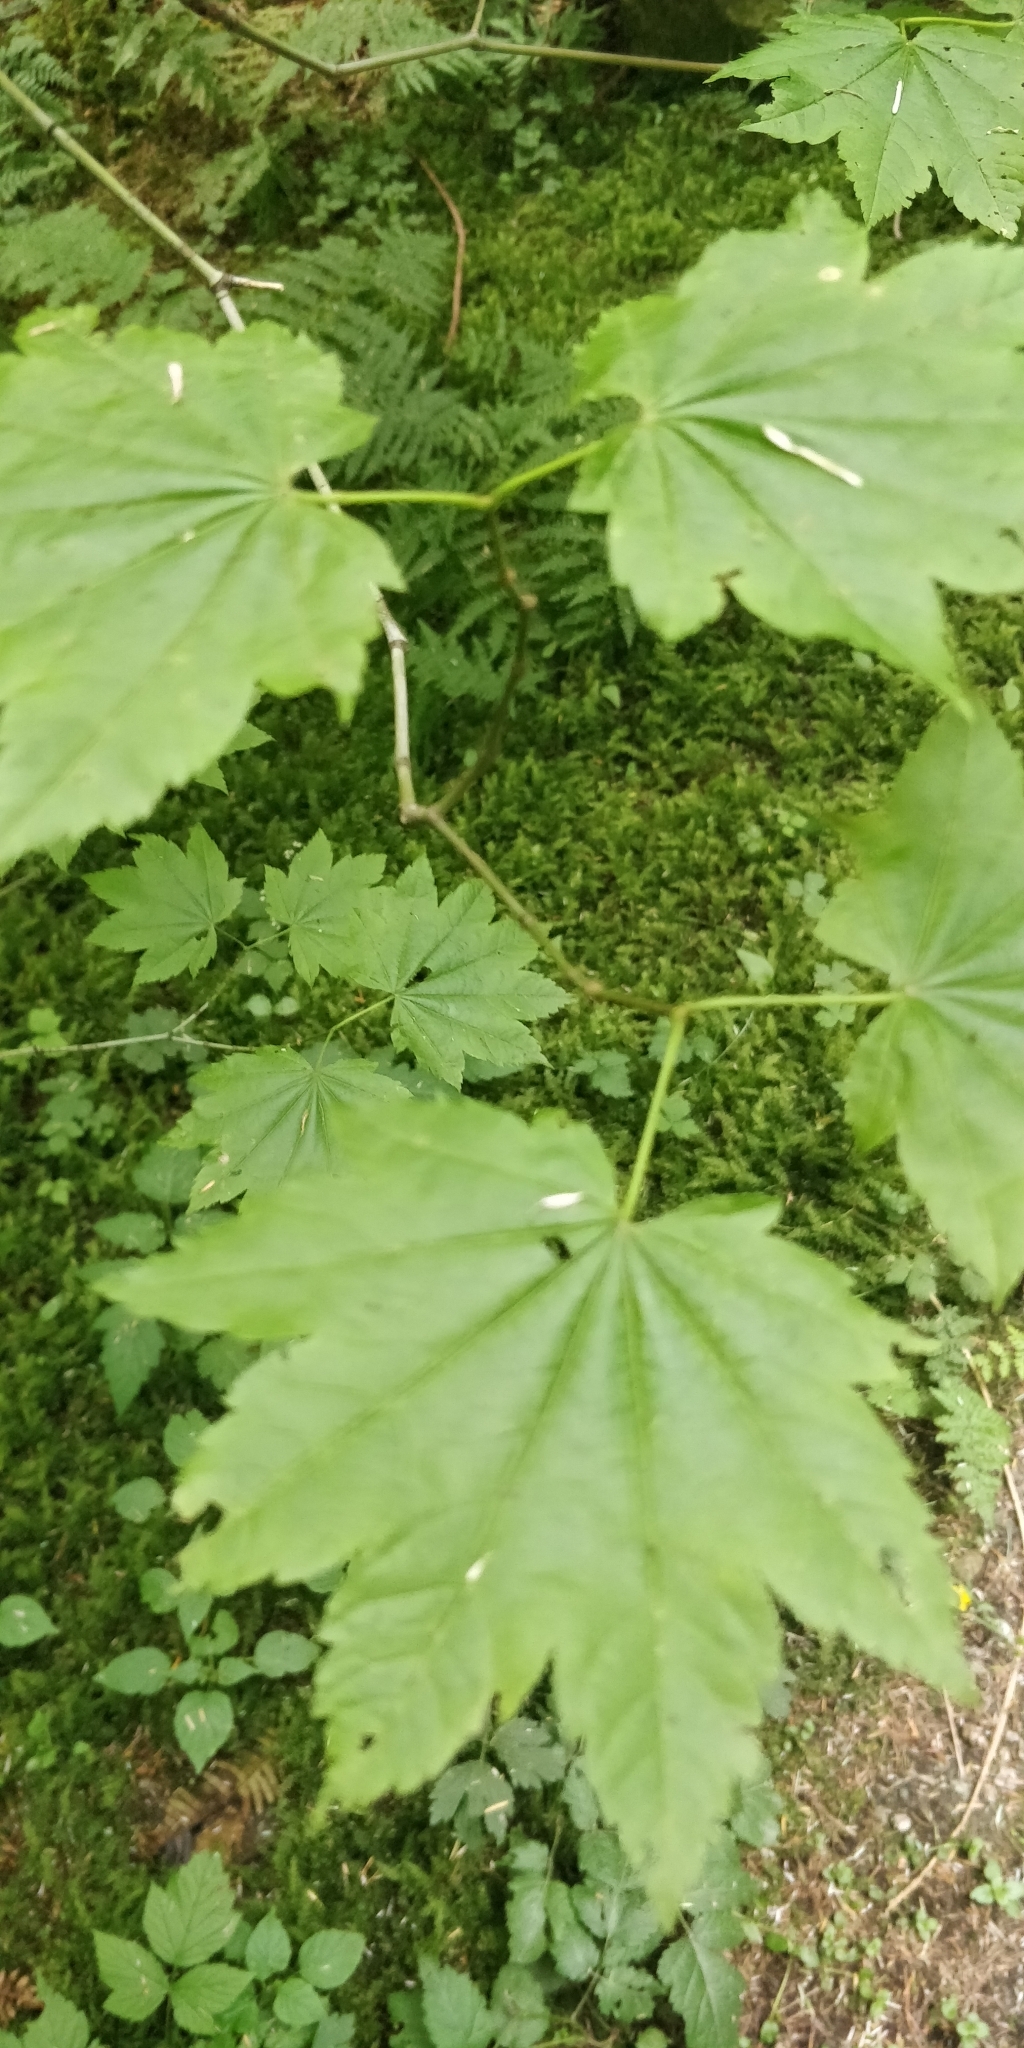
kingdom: Plantae
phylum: Tracheophyta
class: Magnoliopsida
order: Sapindales
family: Sapindaceae
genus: Acer
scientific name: Acer circinatum
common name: Vine maple
